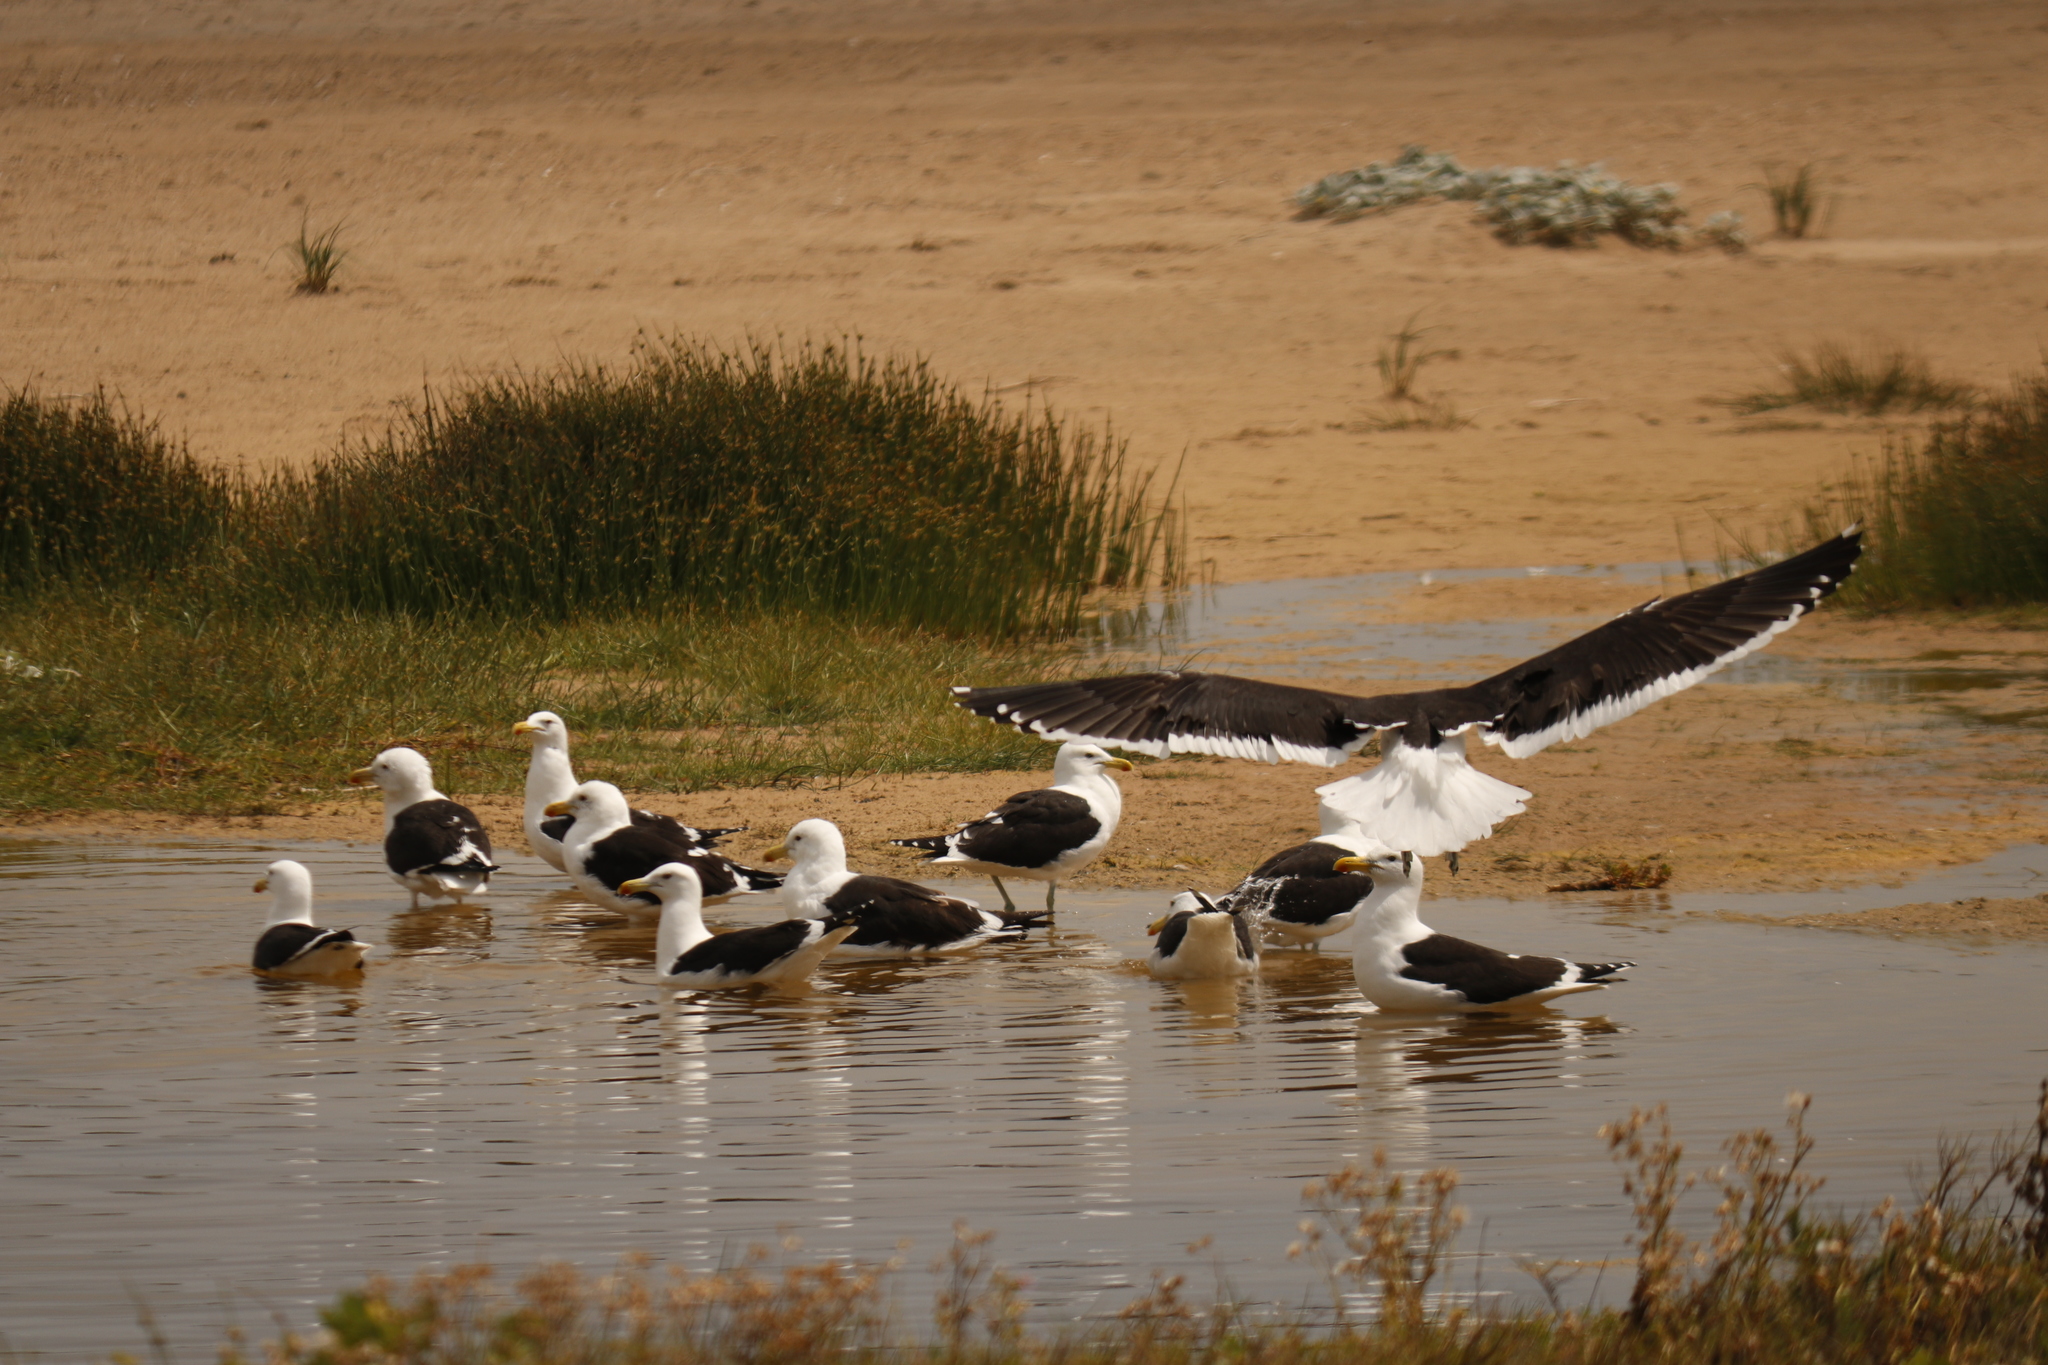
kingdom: Animalia
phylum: Chordata
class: Aves
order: Charadriiformes
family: Laridae
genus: Larus
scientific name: Larus dominicanus
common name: Kelp gull
